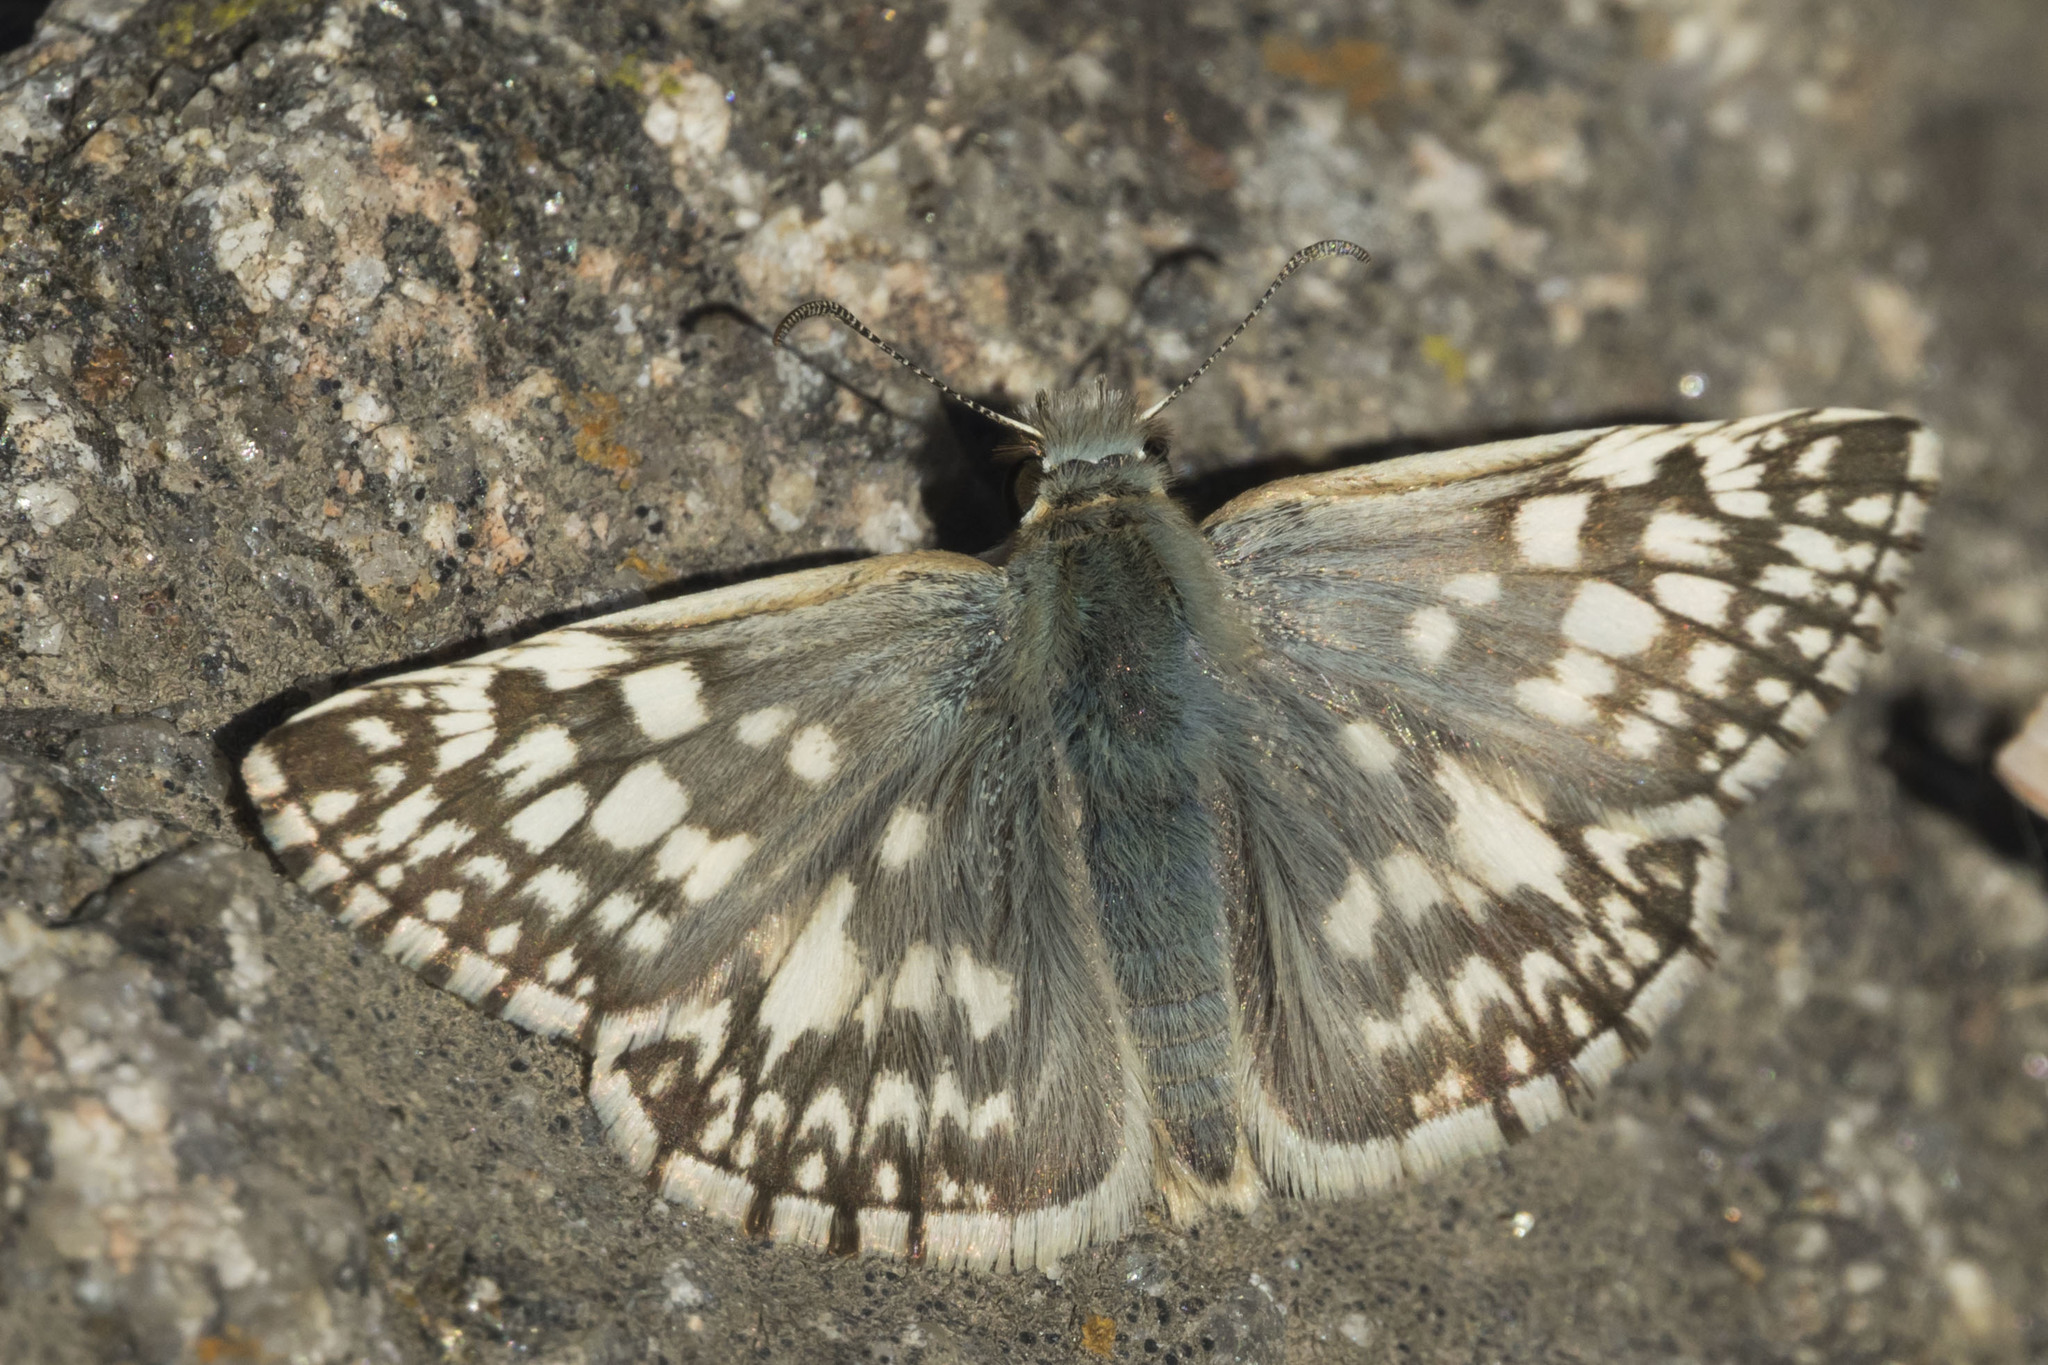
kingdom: Animalia
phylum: Arthropoda
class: Insecta
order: Lepidoptera
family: Hesperiidae
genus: Heliopetes
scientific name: Heliopetes americanus
